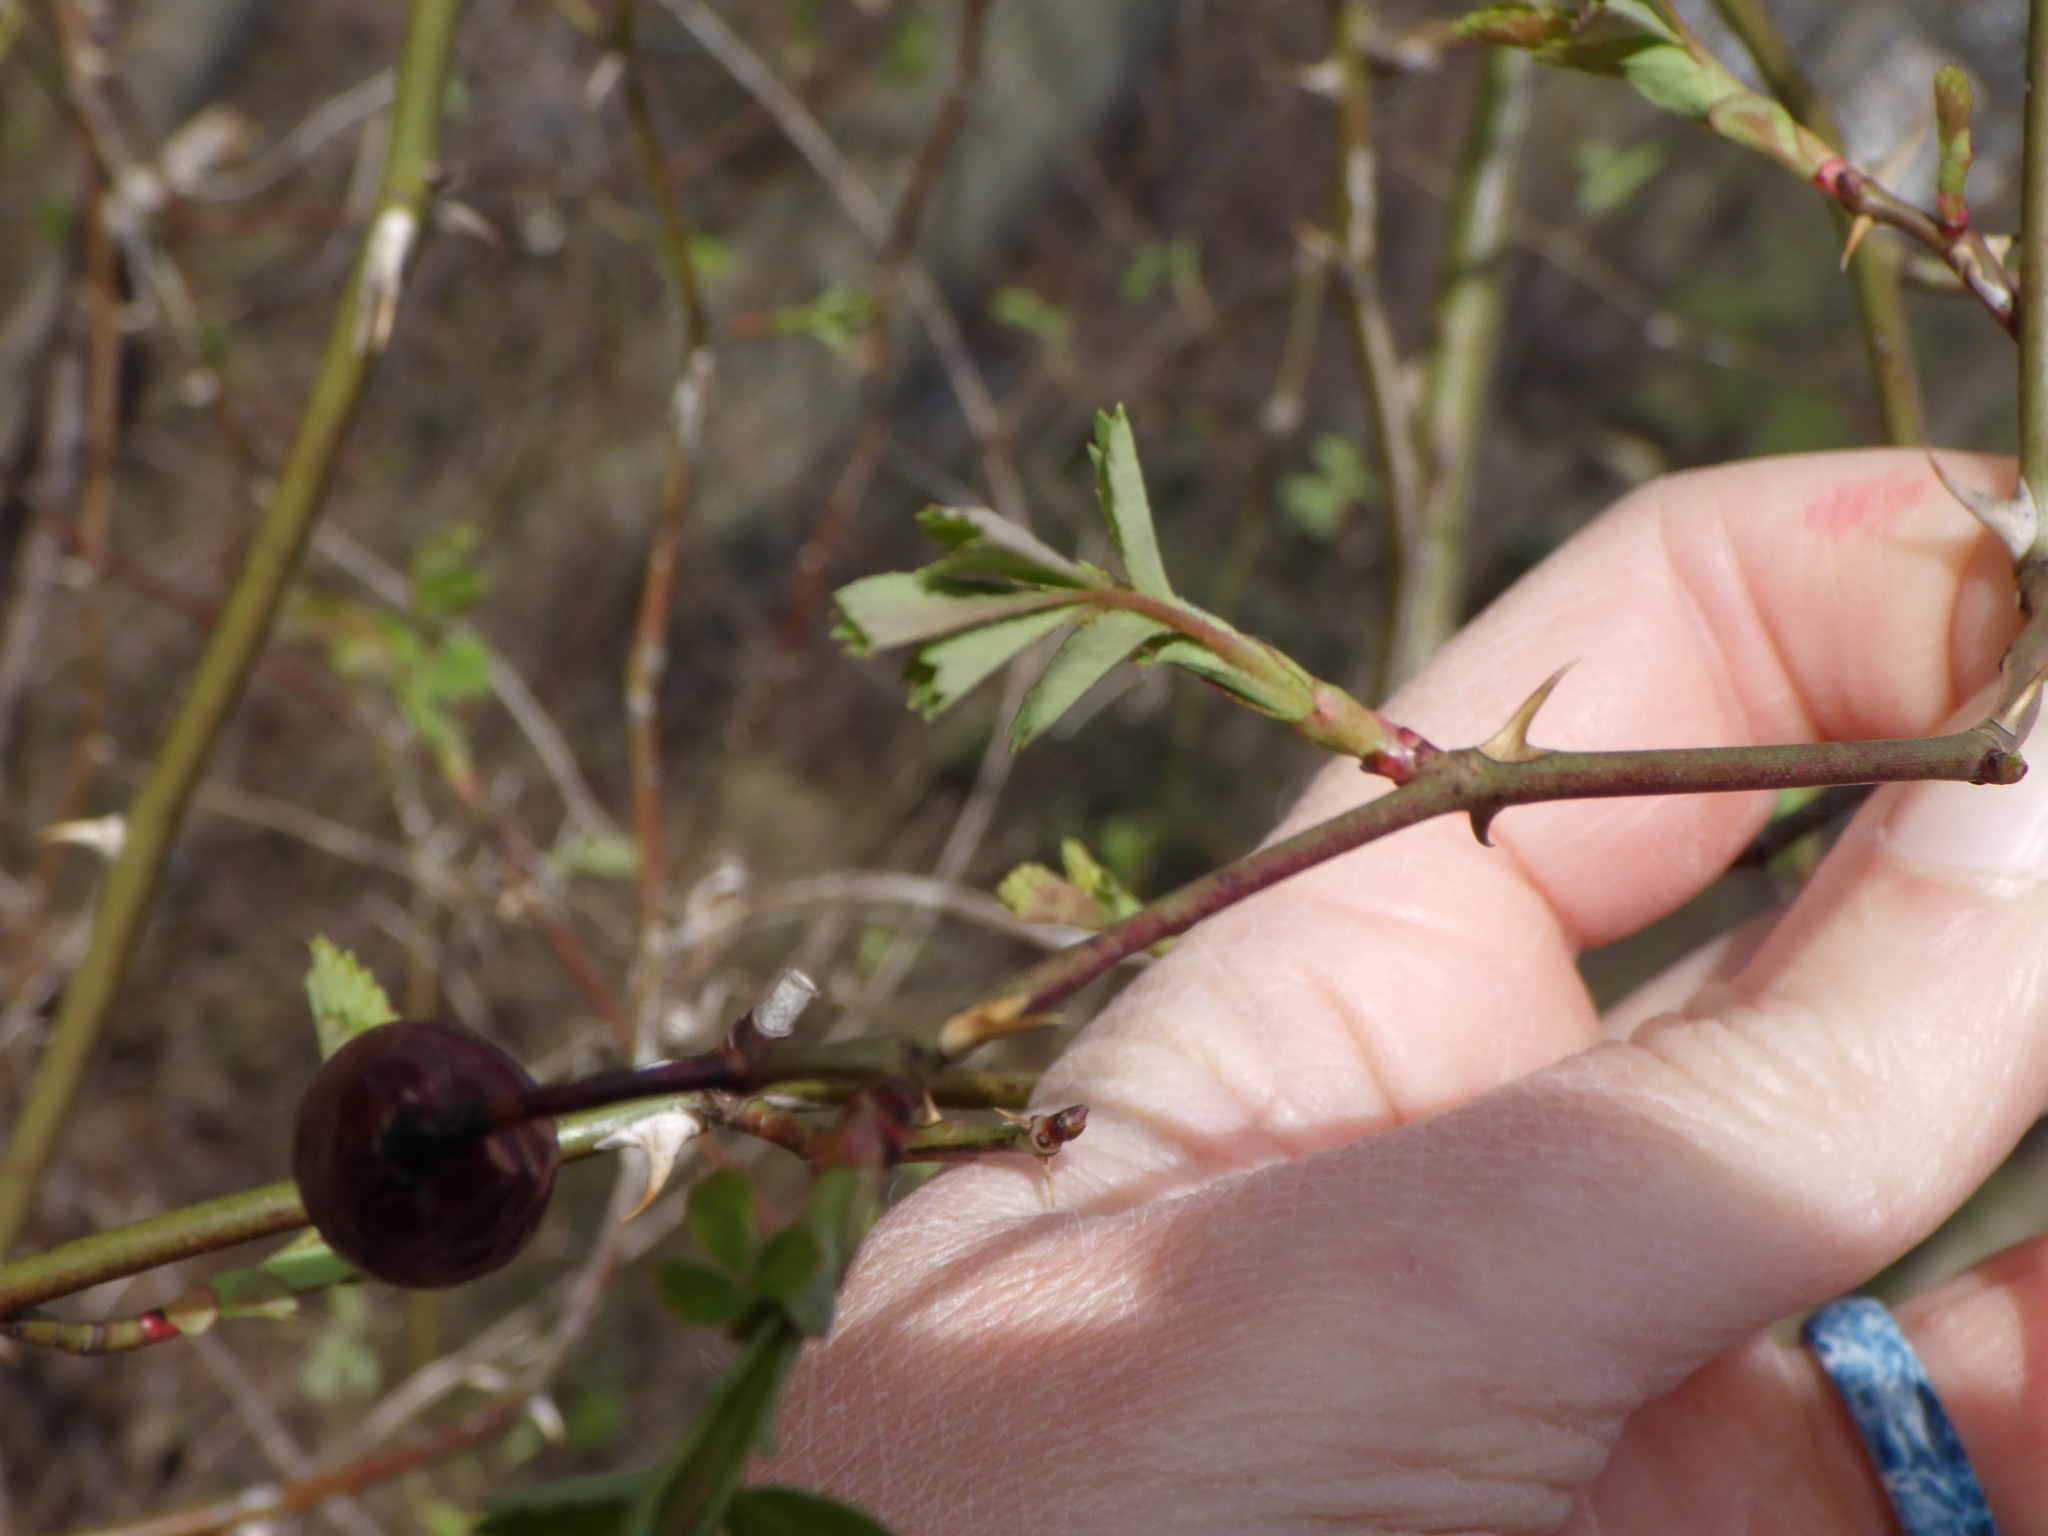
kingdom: Plantae
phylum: Tracheophyta
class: Magnoliopsida
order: Rosales
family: Rosaceae
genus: Rosa
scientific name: Rosa multiflora
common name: Multiflora rose
